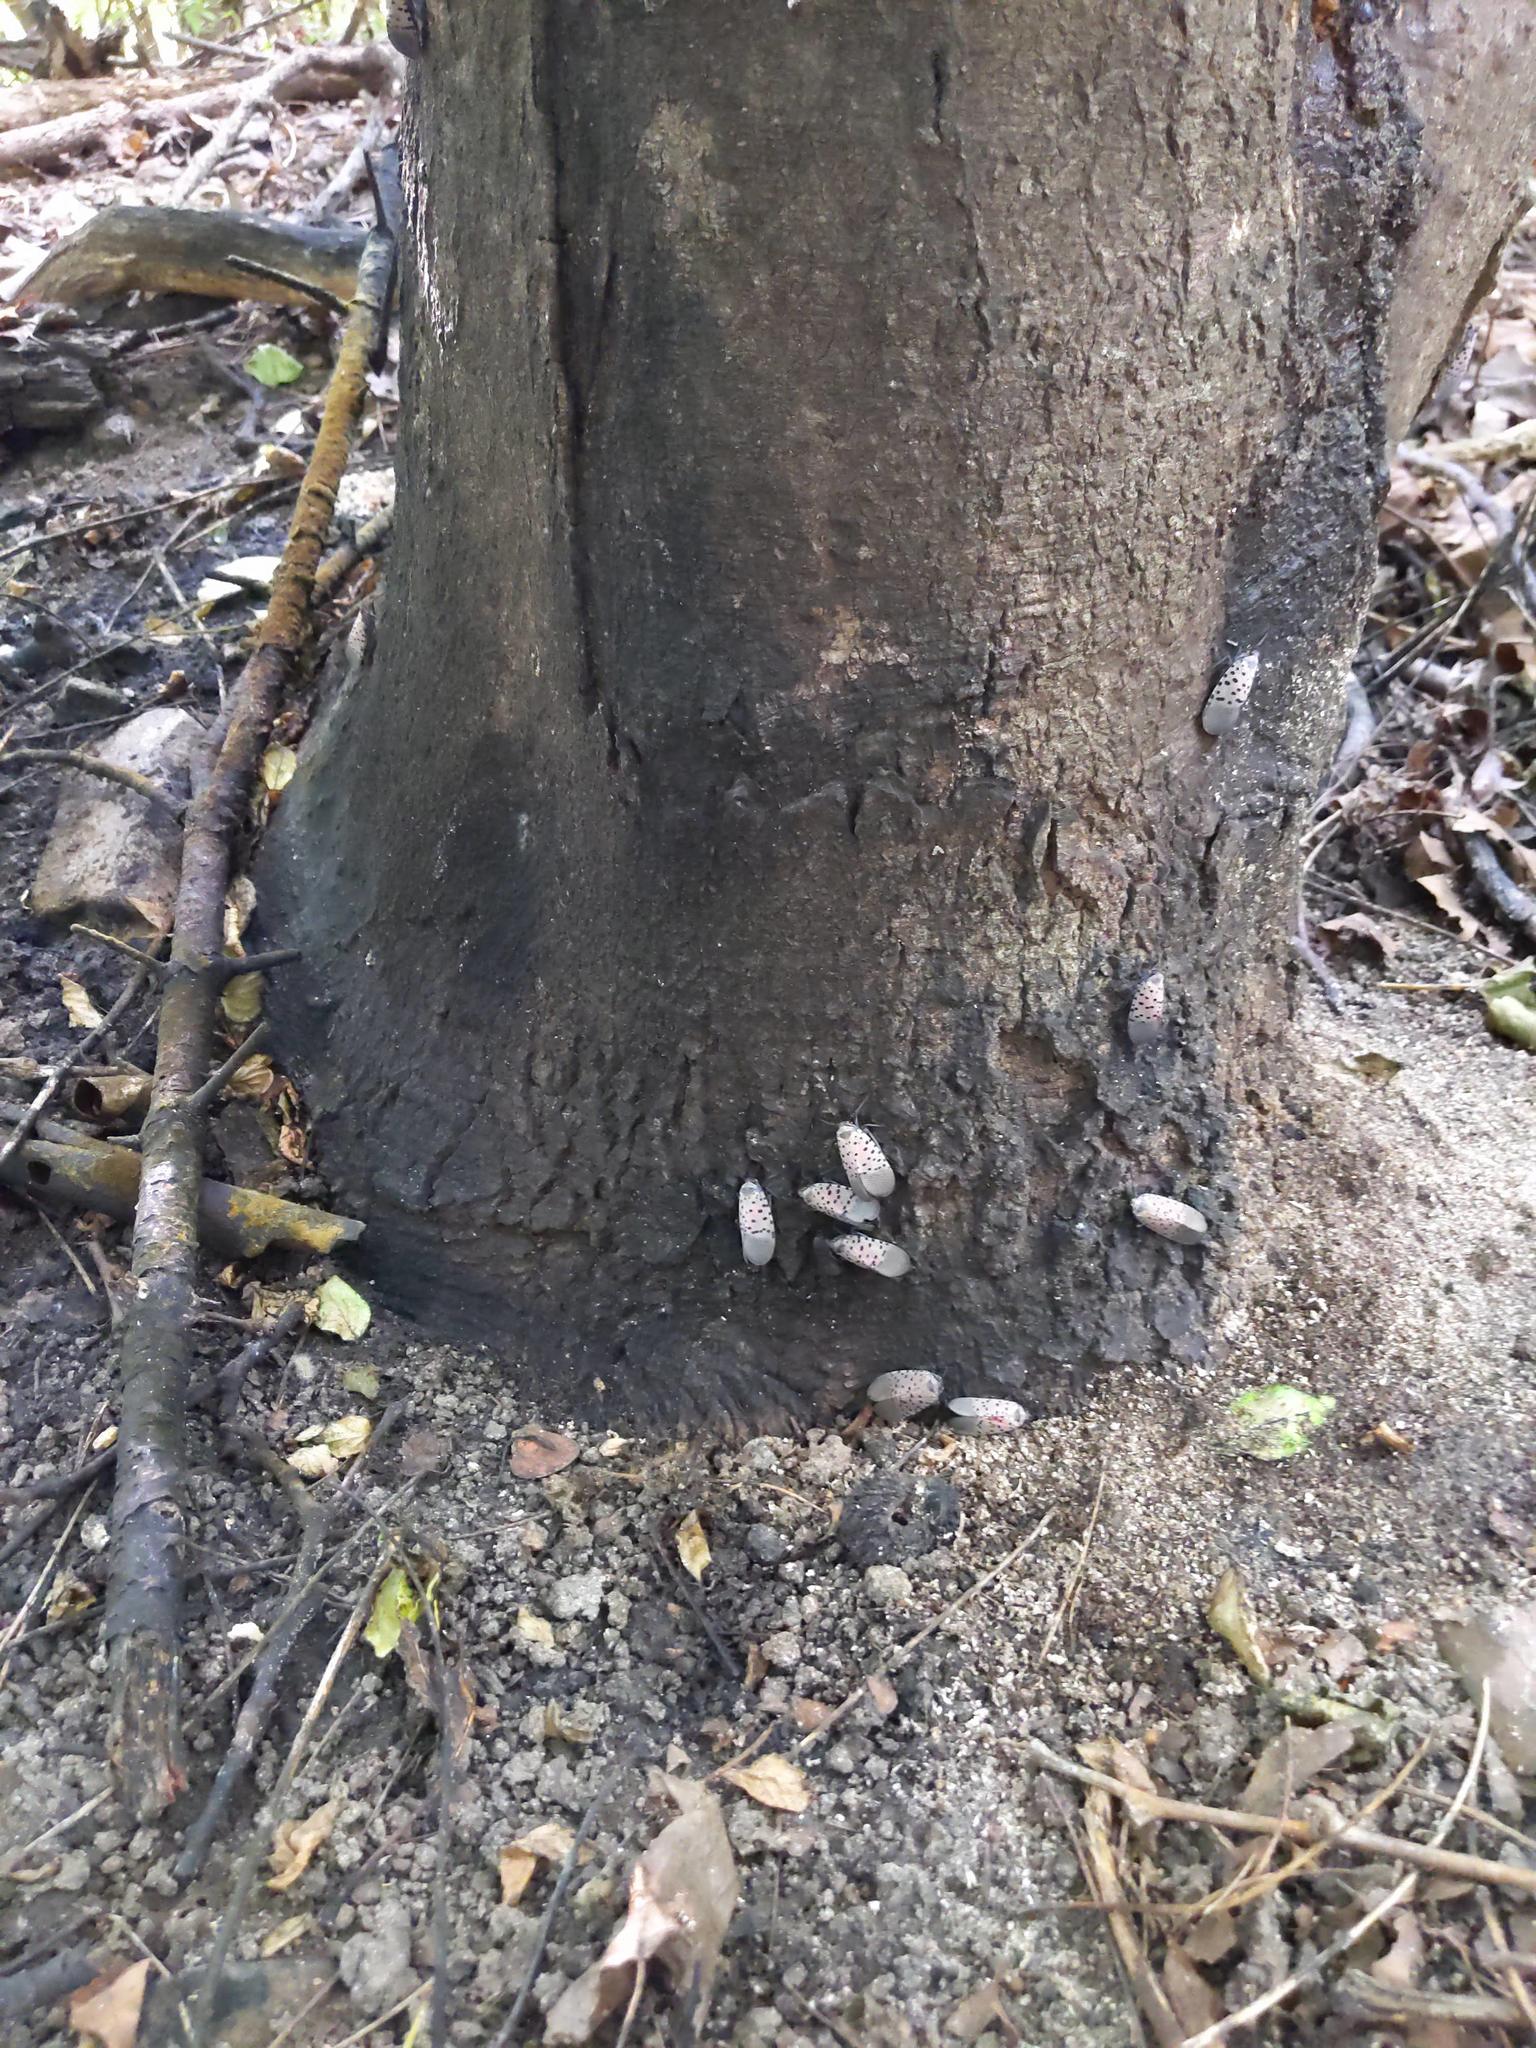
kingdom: Animalia
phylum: Arthropoda
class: Insecta
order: Hemiptera
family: Fulgoridae
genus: Lycorma
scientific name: Lycorma delicatula
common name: Spotted lanternfly
